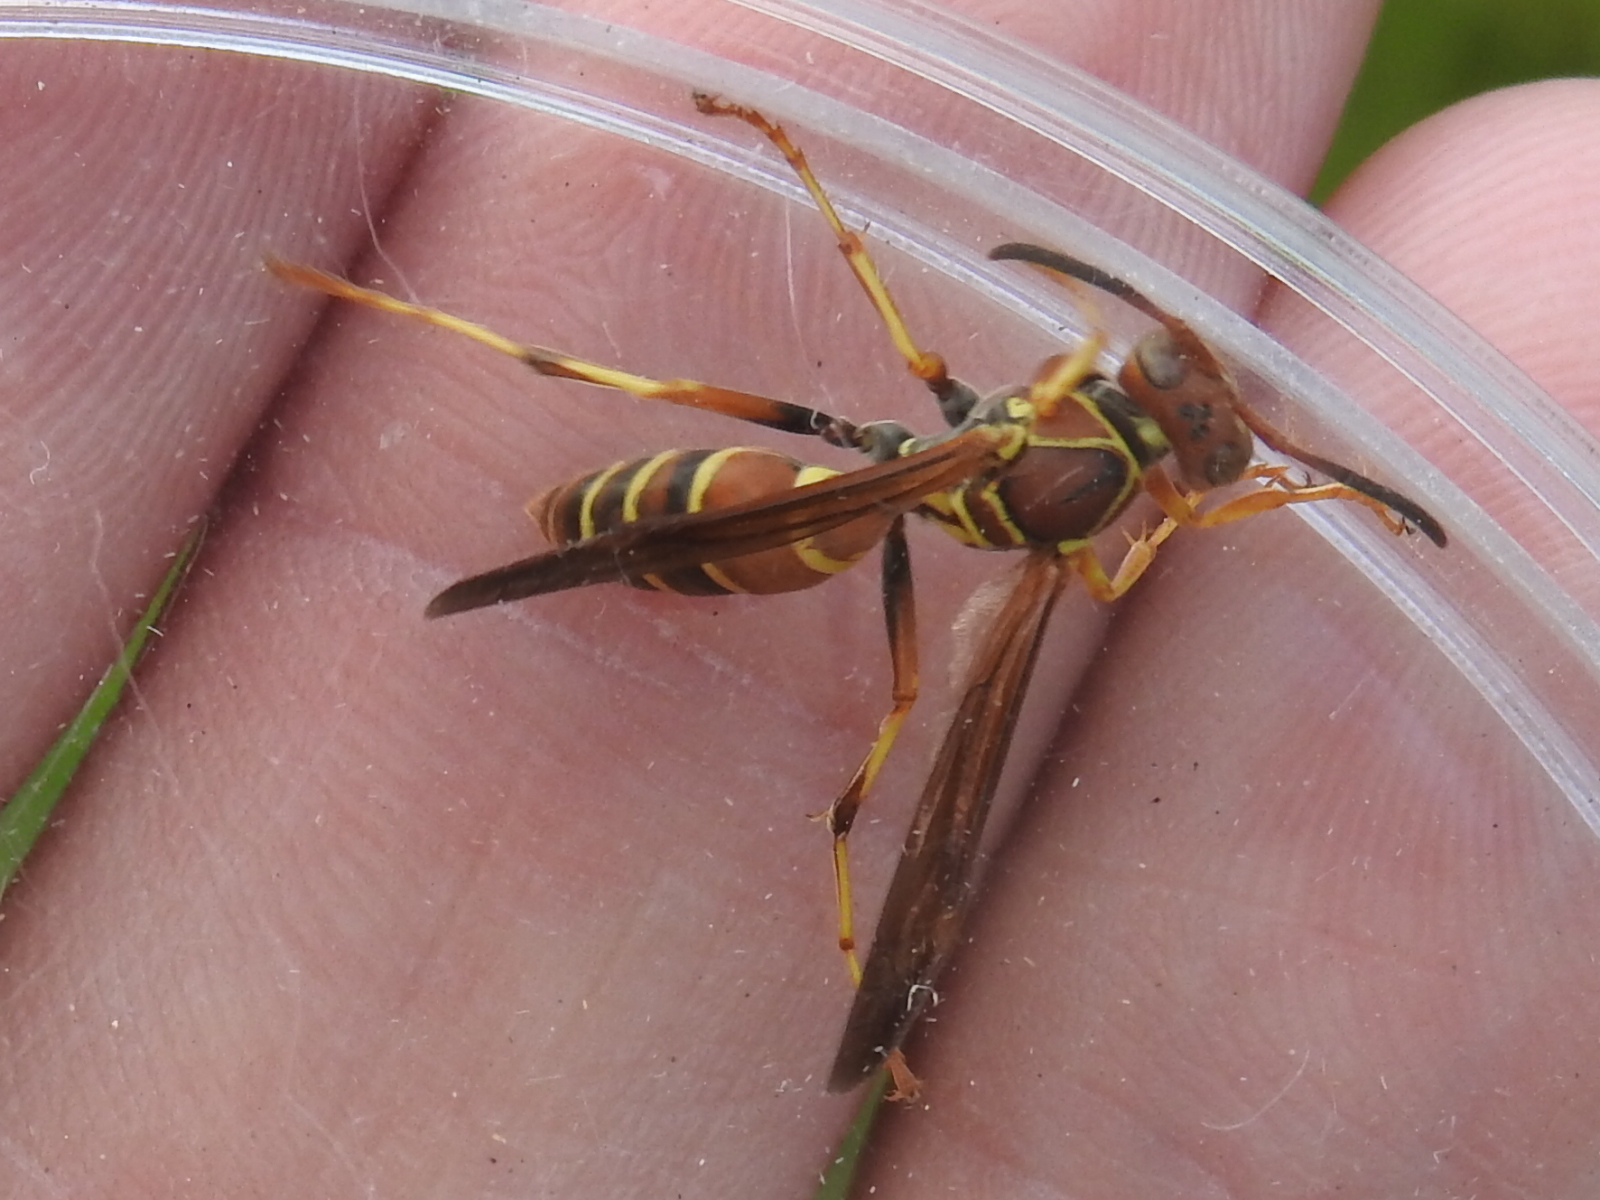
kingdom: Animalia
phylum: Arthropoda
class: Insecta
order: Hymenoptera
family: Eumenidae
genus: Polistes
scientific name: Polistes dorsalis
